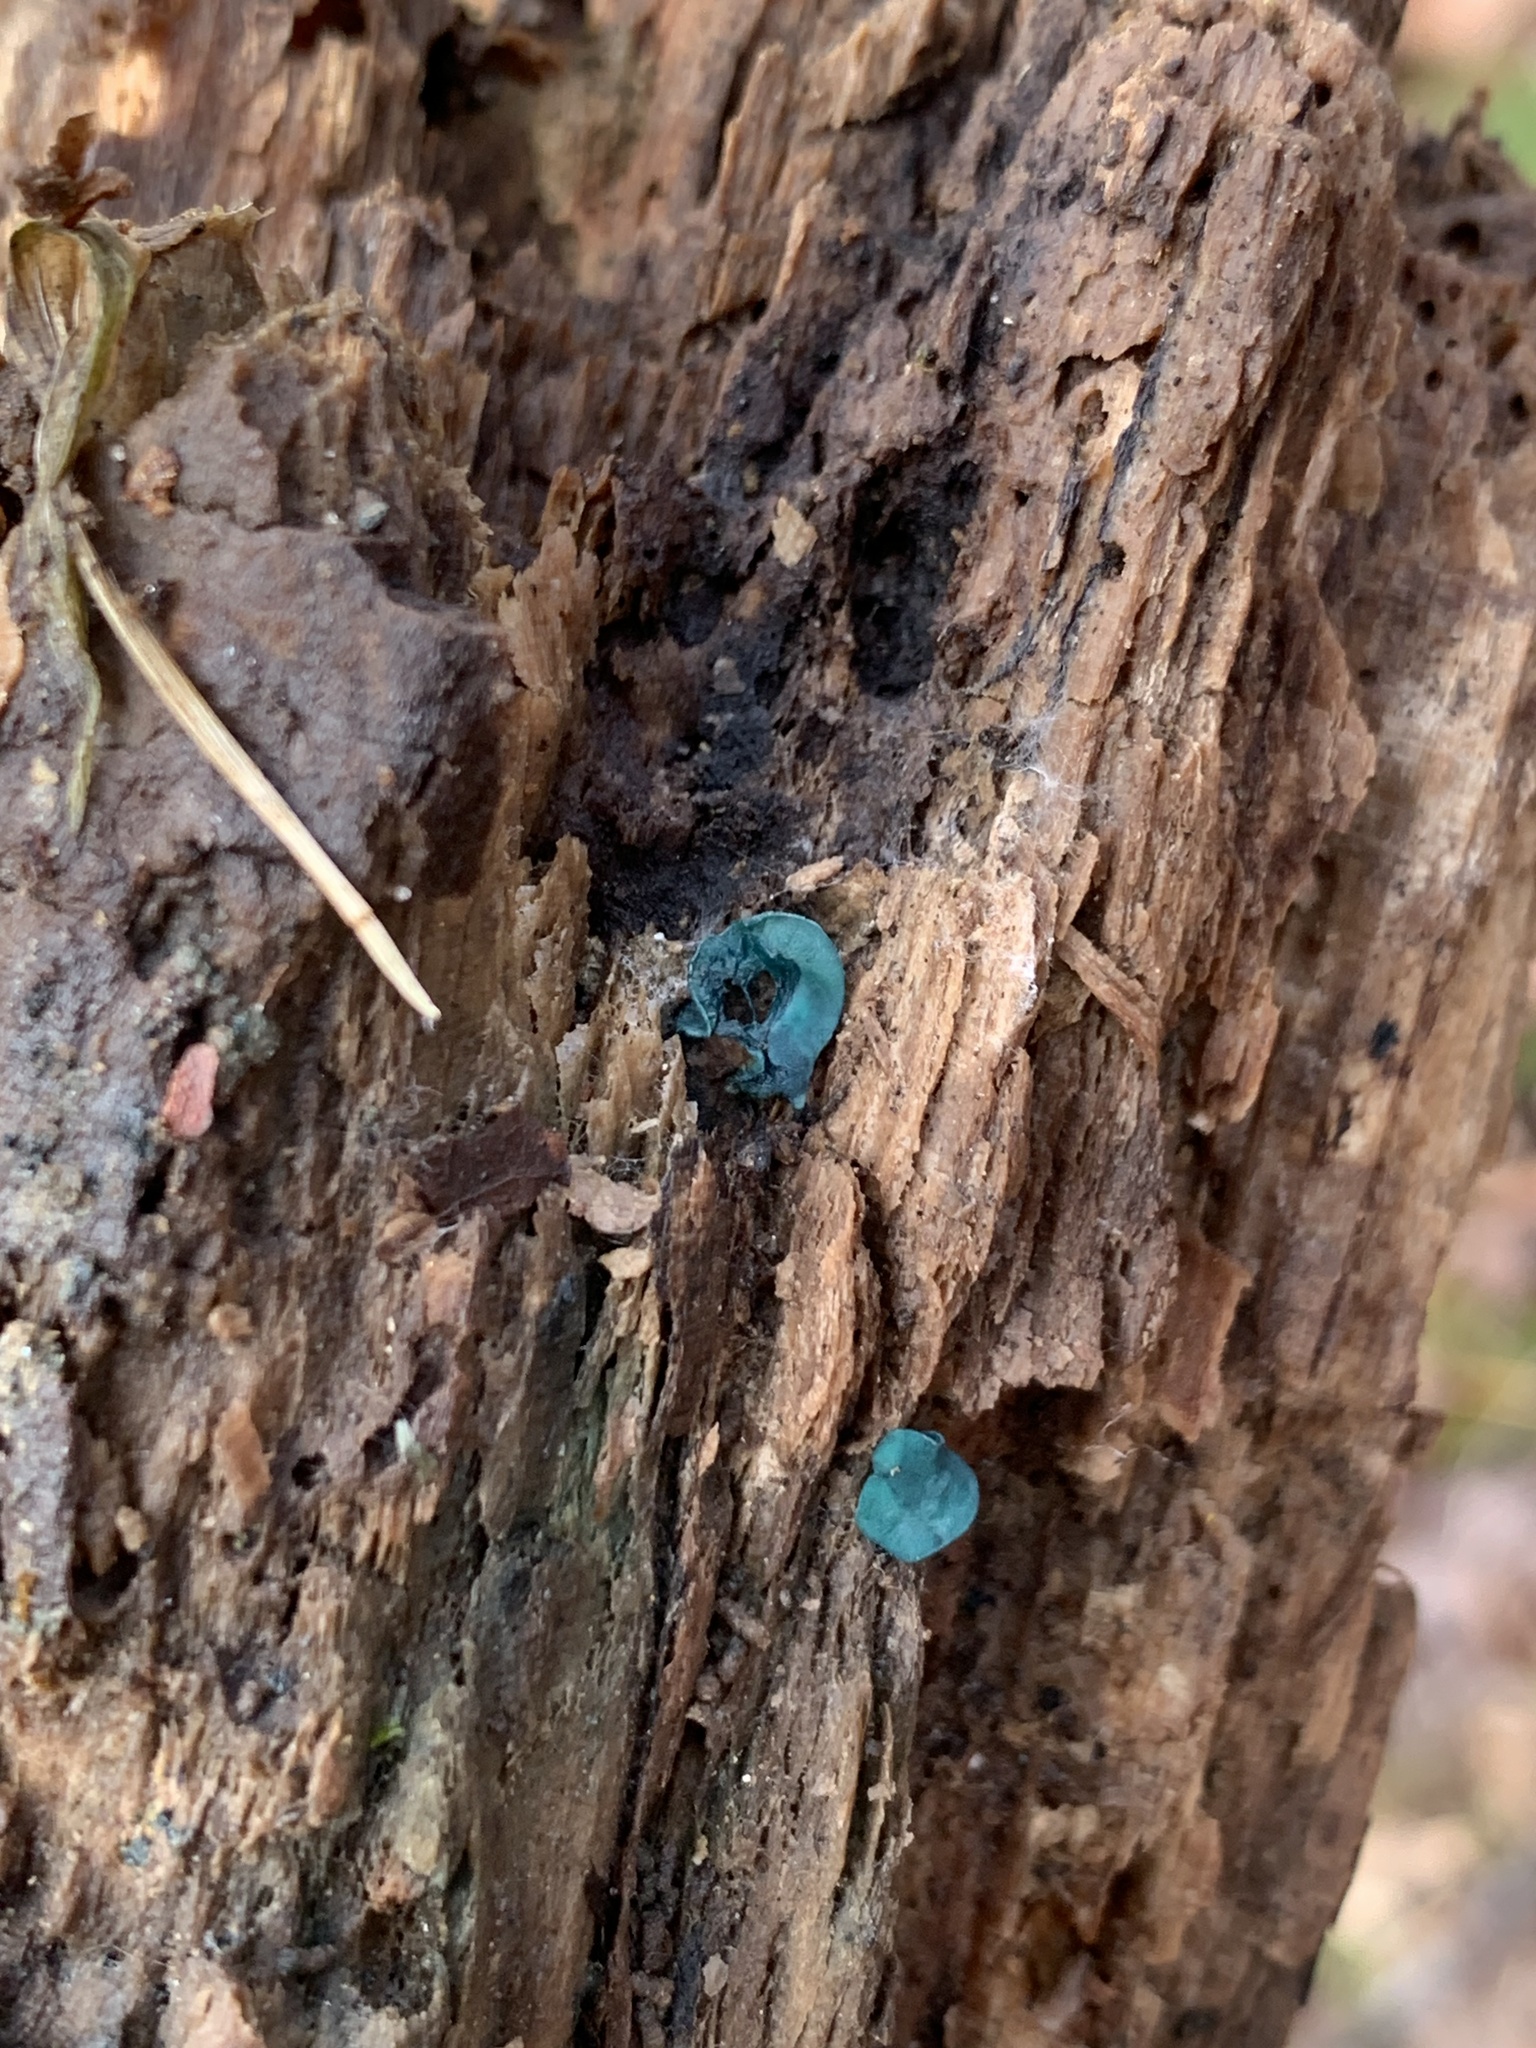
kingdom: Fungi
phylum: Ascomycota
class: Leotiomycetes
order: Helotiales
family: Chlorociboriaceae
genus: Chlorociboria
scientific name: Chlorociboria aeruginascens
